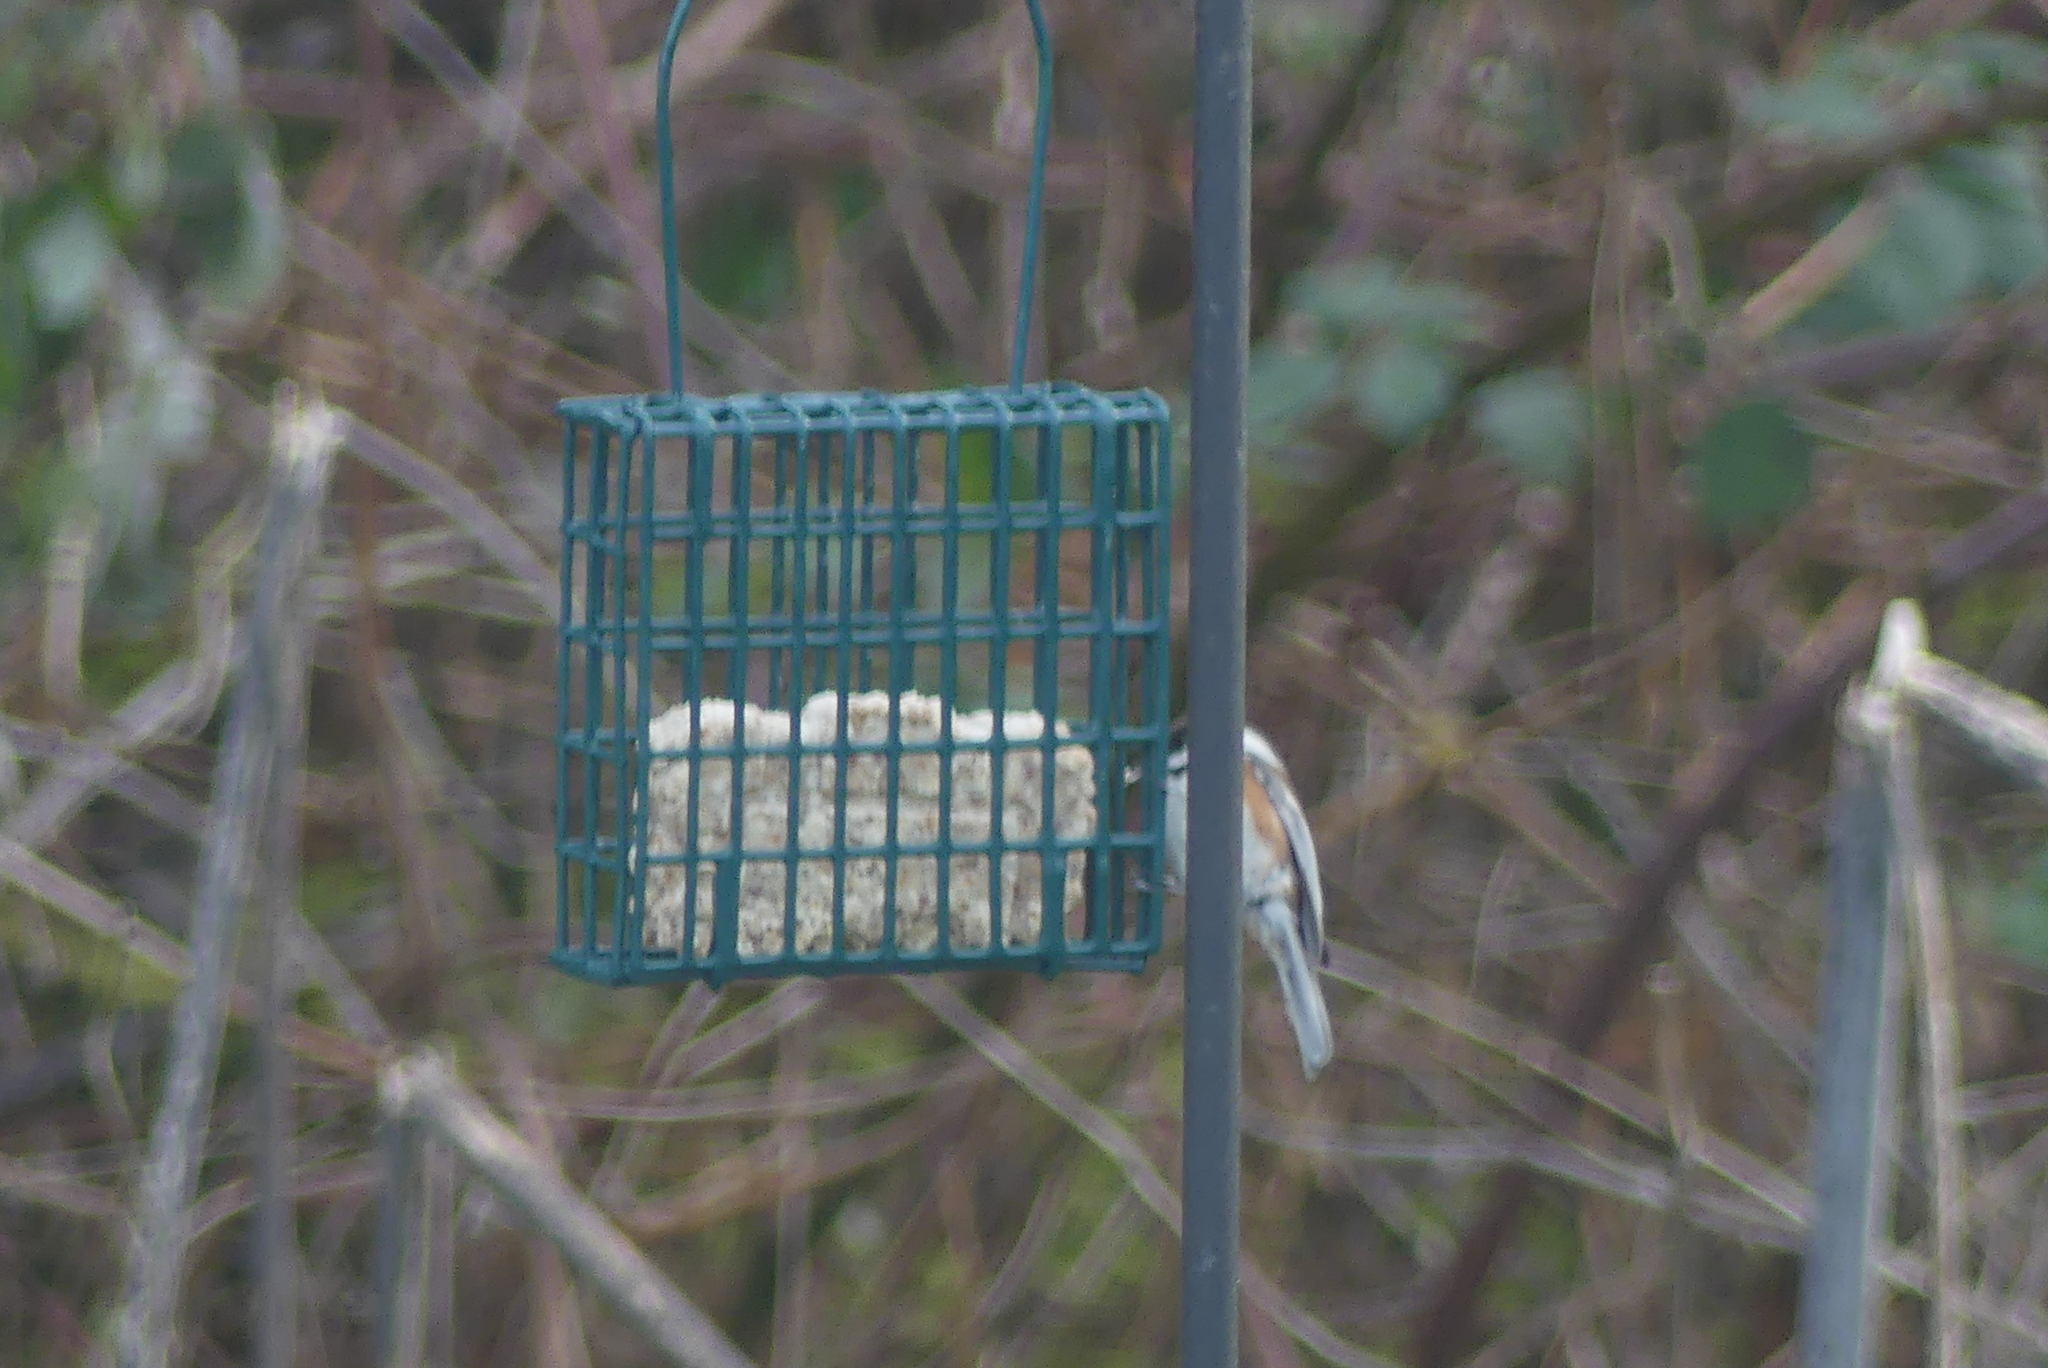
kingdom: Animalia
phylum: Chordata
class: Aves
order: Passeriformes
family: Paridae
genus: Poecile
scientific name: Poecile rufescens
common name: Chestnut-backed chickadee
